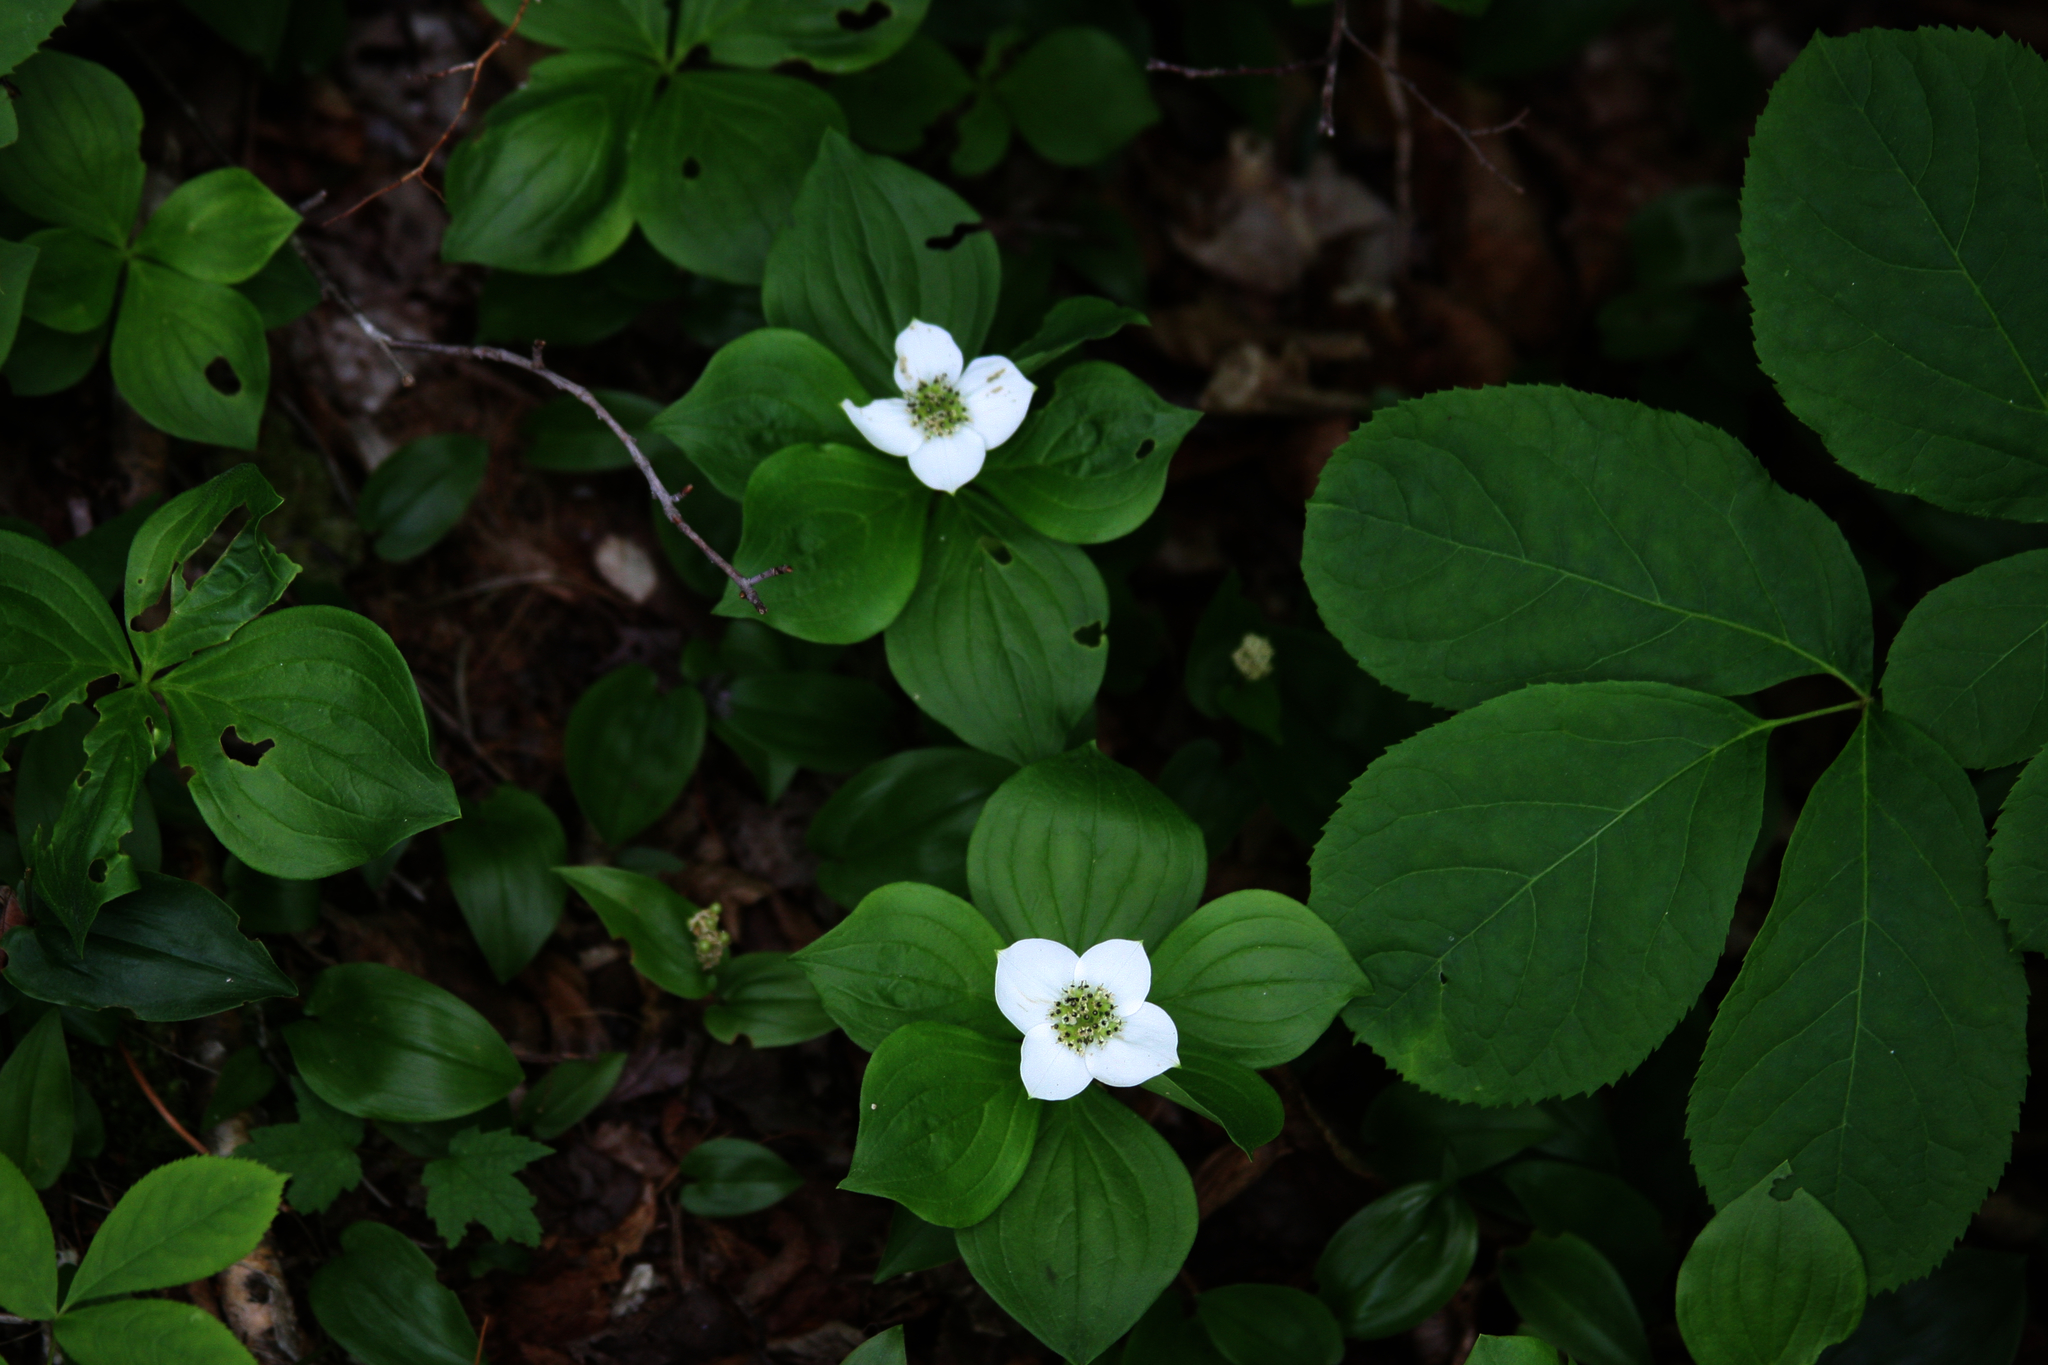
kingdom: Plantae
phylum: Tracheophyta
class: Magnoliopsida
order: Apiales
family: Araliaceae
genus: Aralia
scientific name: Aralia nudicaulis
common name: Wild sarsaparilla
